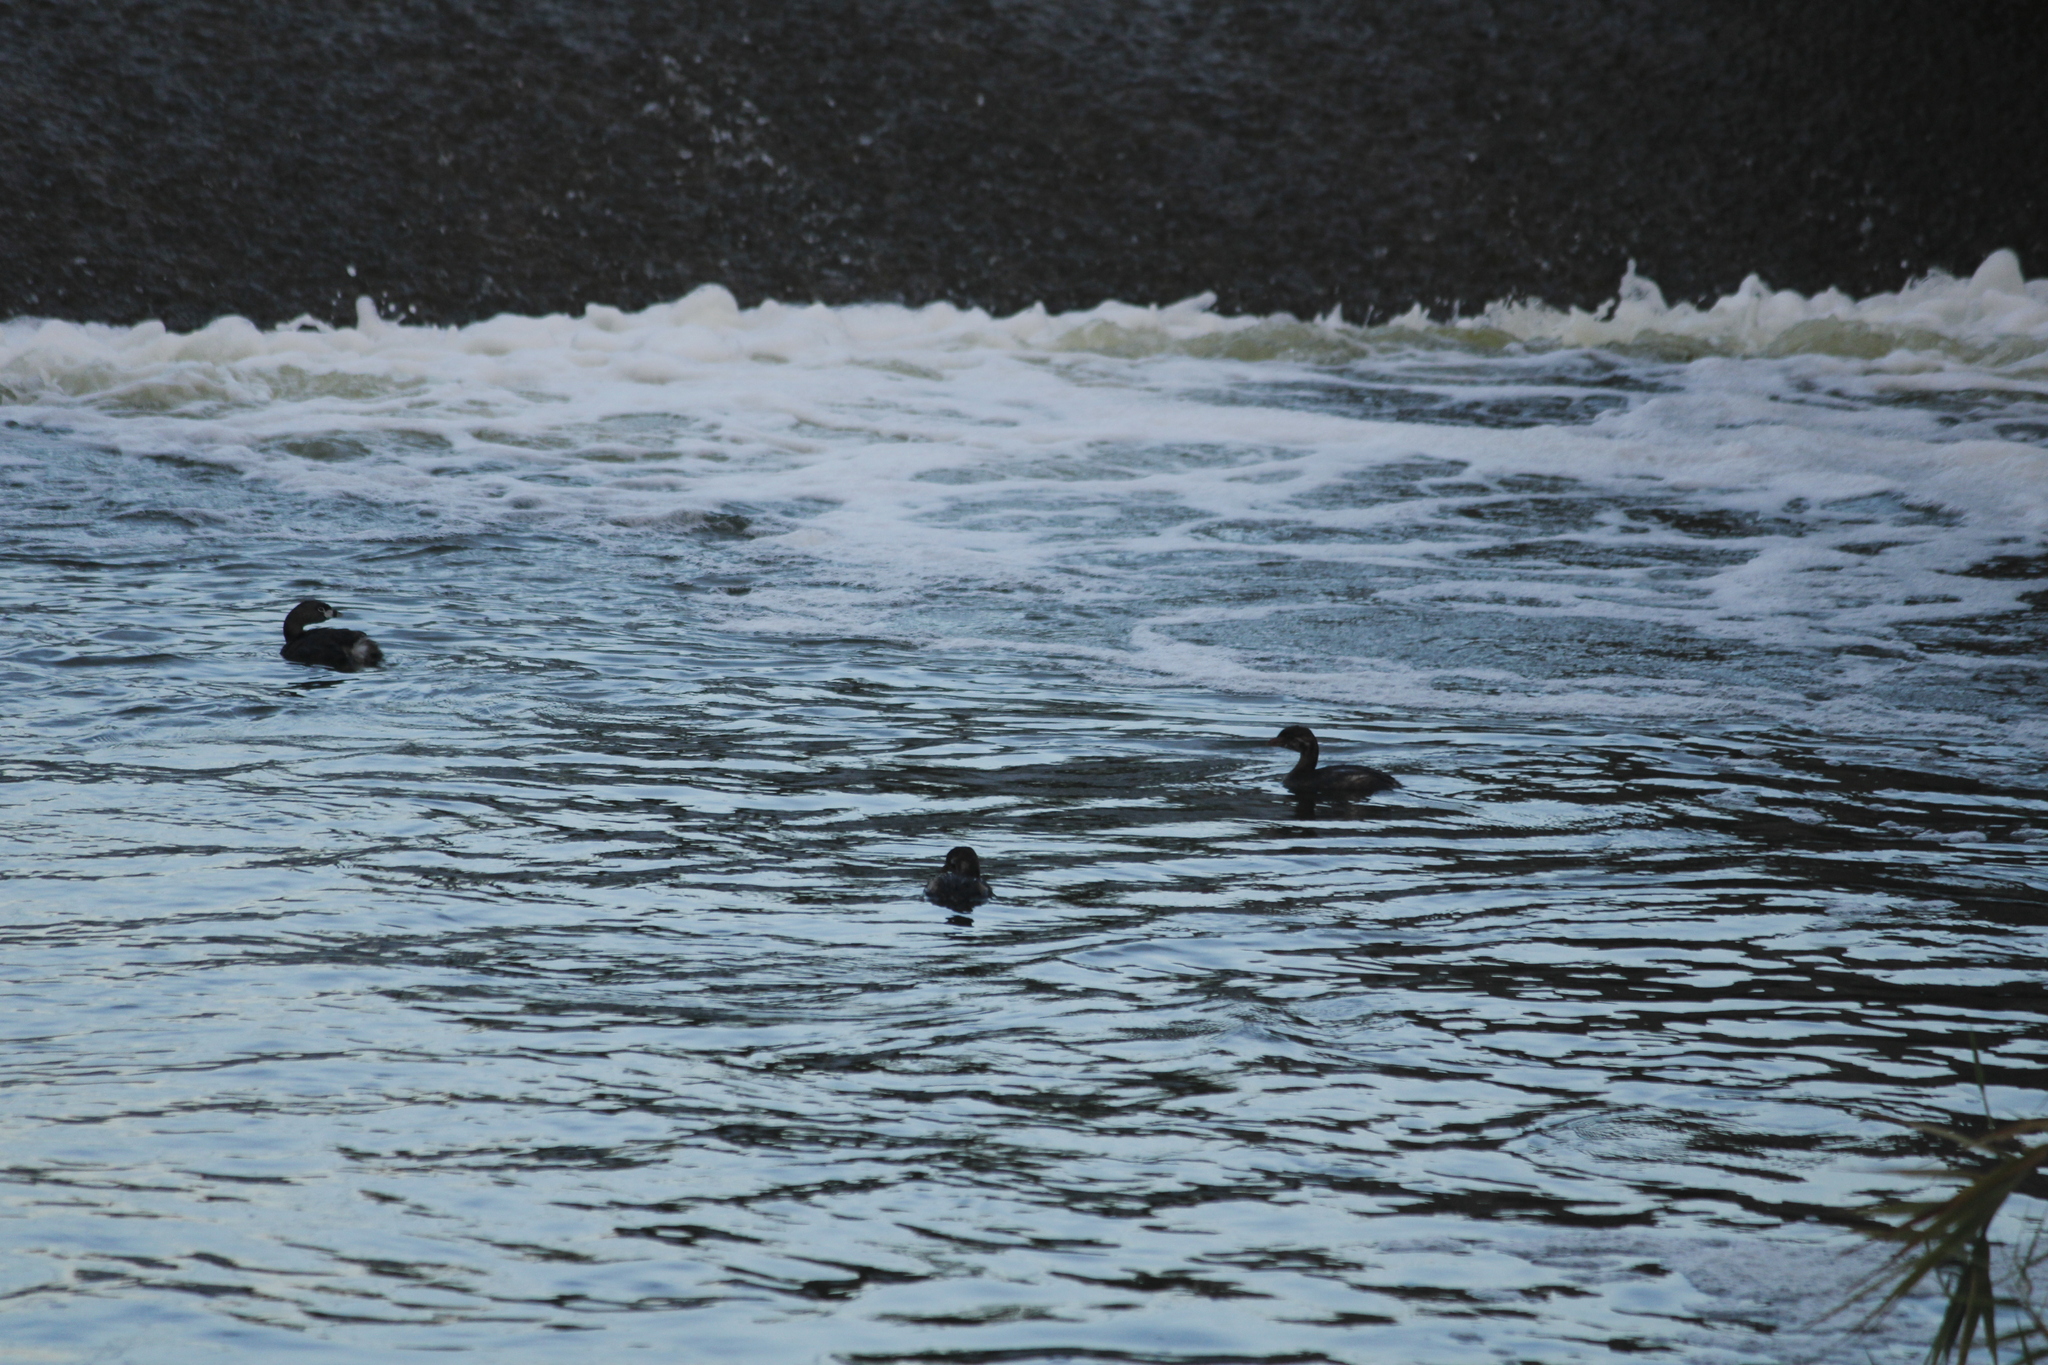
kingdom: Animalia
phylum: Chordata
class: Aves
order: Podicipediformes
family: Podicipedidae
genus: Podilymbus
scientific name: Podilymbus podiceps
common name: Pied-billed grebe
